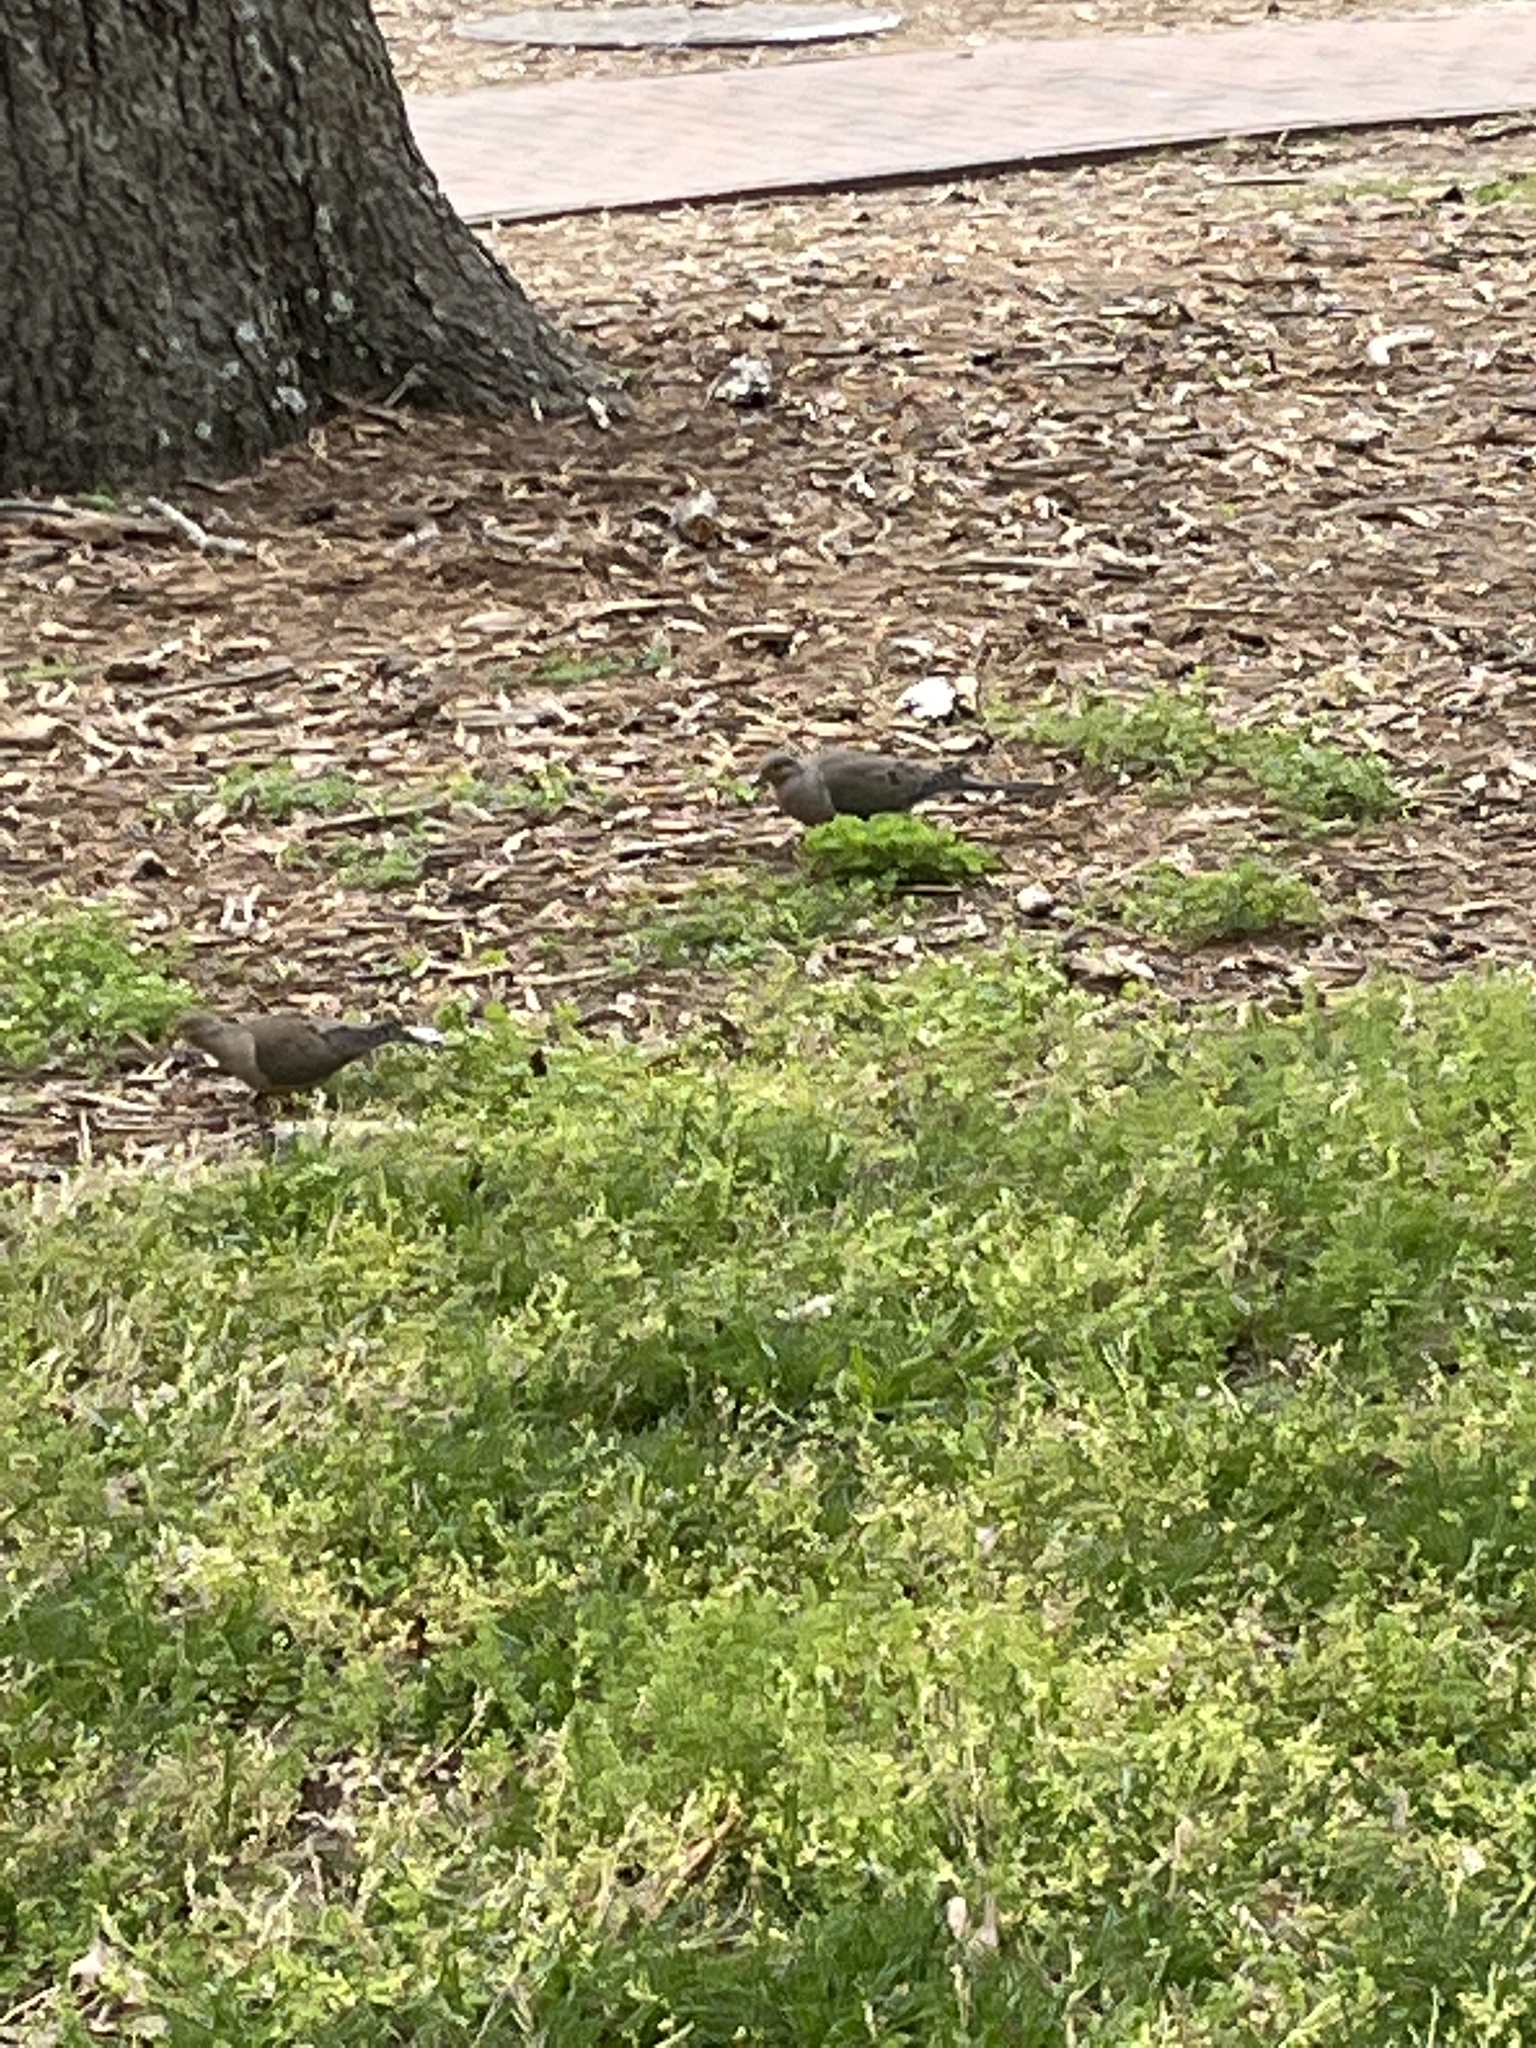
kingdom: Animalia
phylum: Chordata
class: Aves
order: Columbiformes
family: Columbidae
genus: Zenaida
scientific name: Zenaida macroura
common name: Mourning dove
